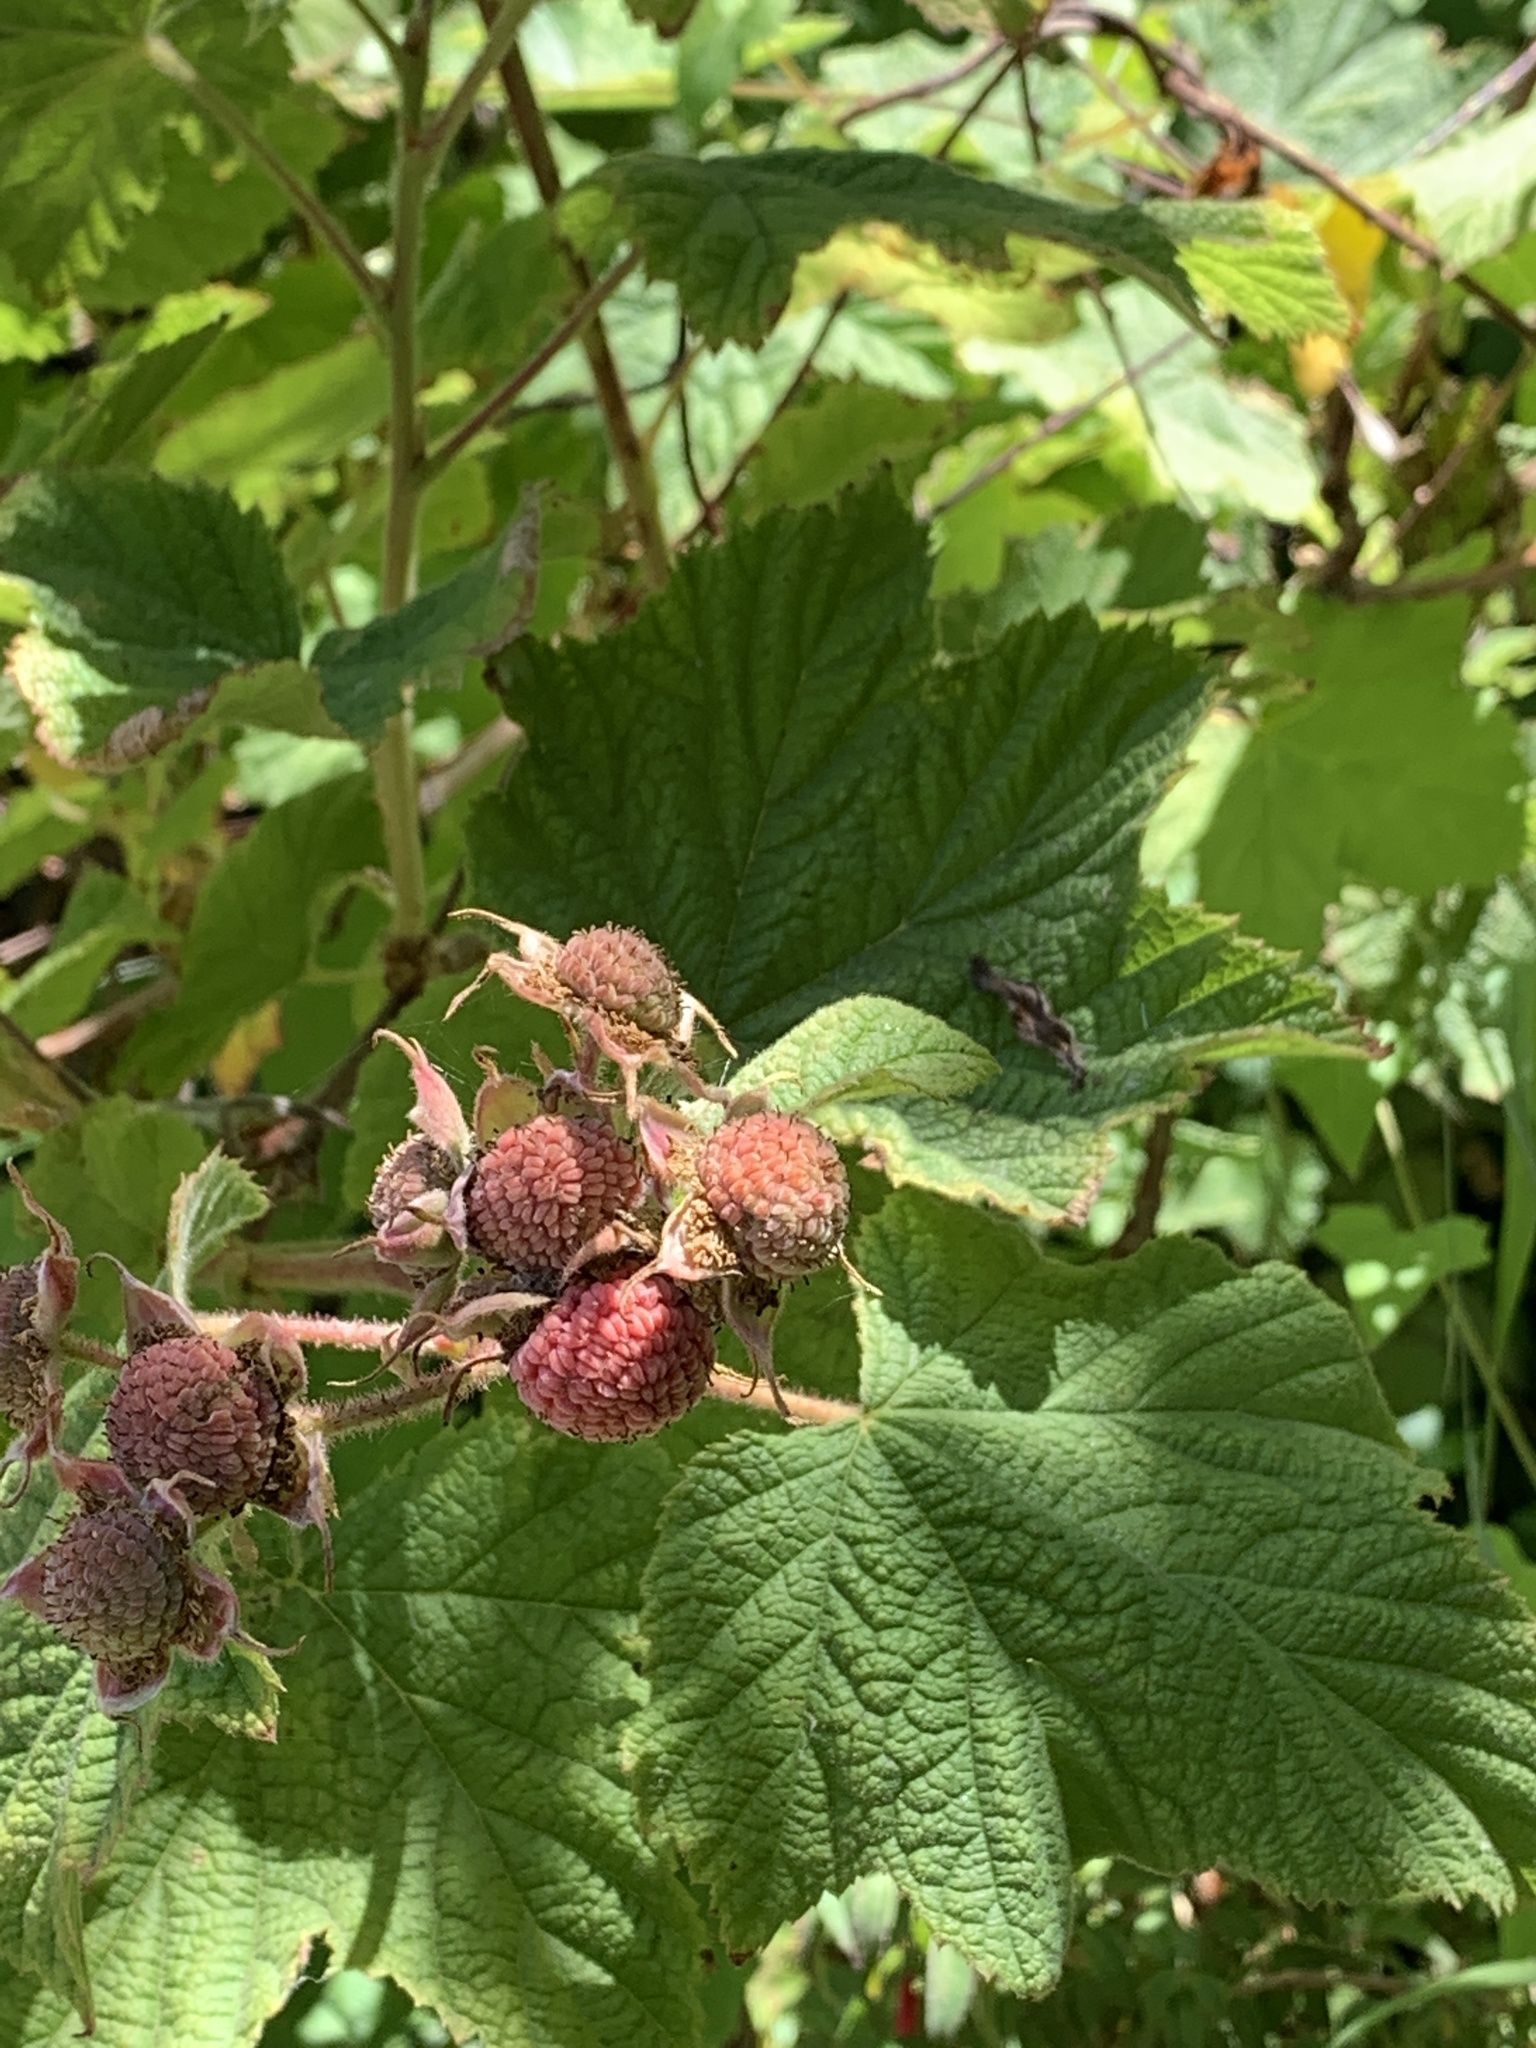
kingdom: Plantae
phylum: Tracheophyta
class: Magnoliopsida
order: Rosales
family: Rosaceae
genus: Rubus
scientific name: Rubus parviflorus
